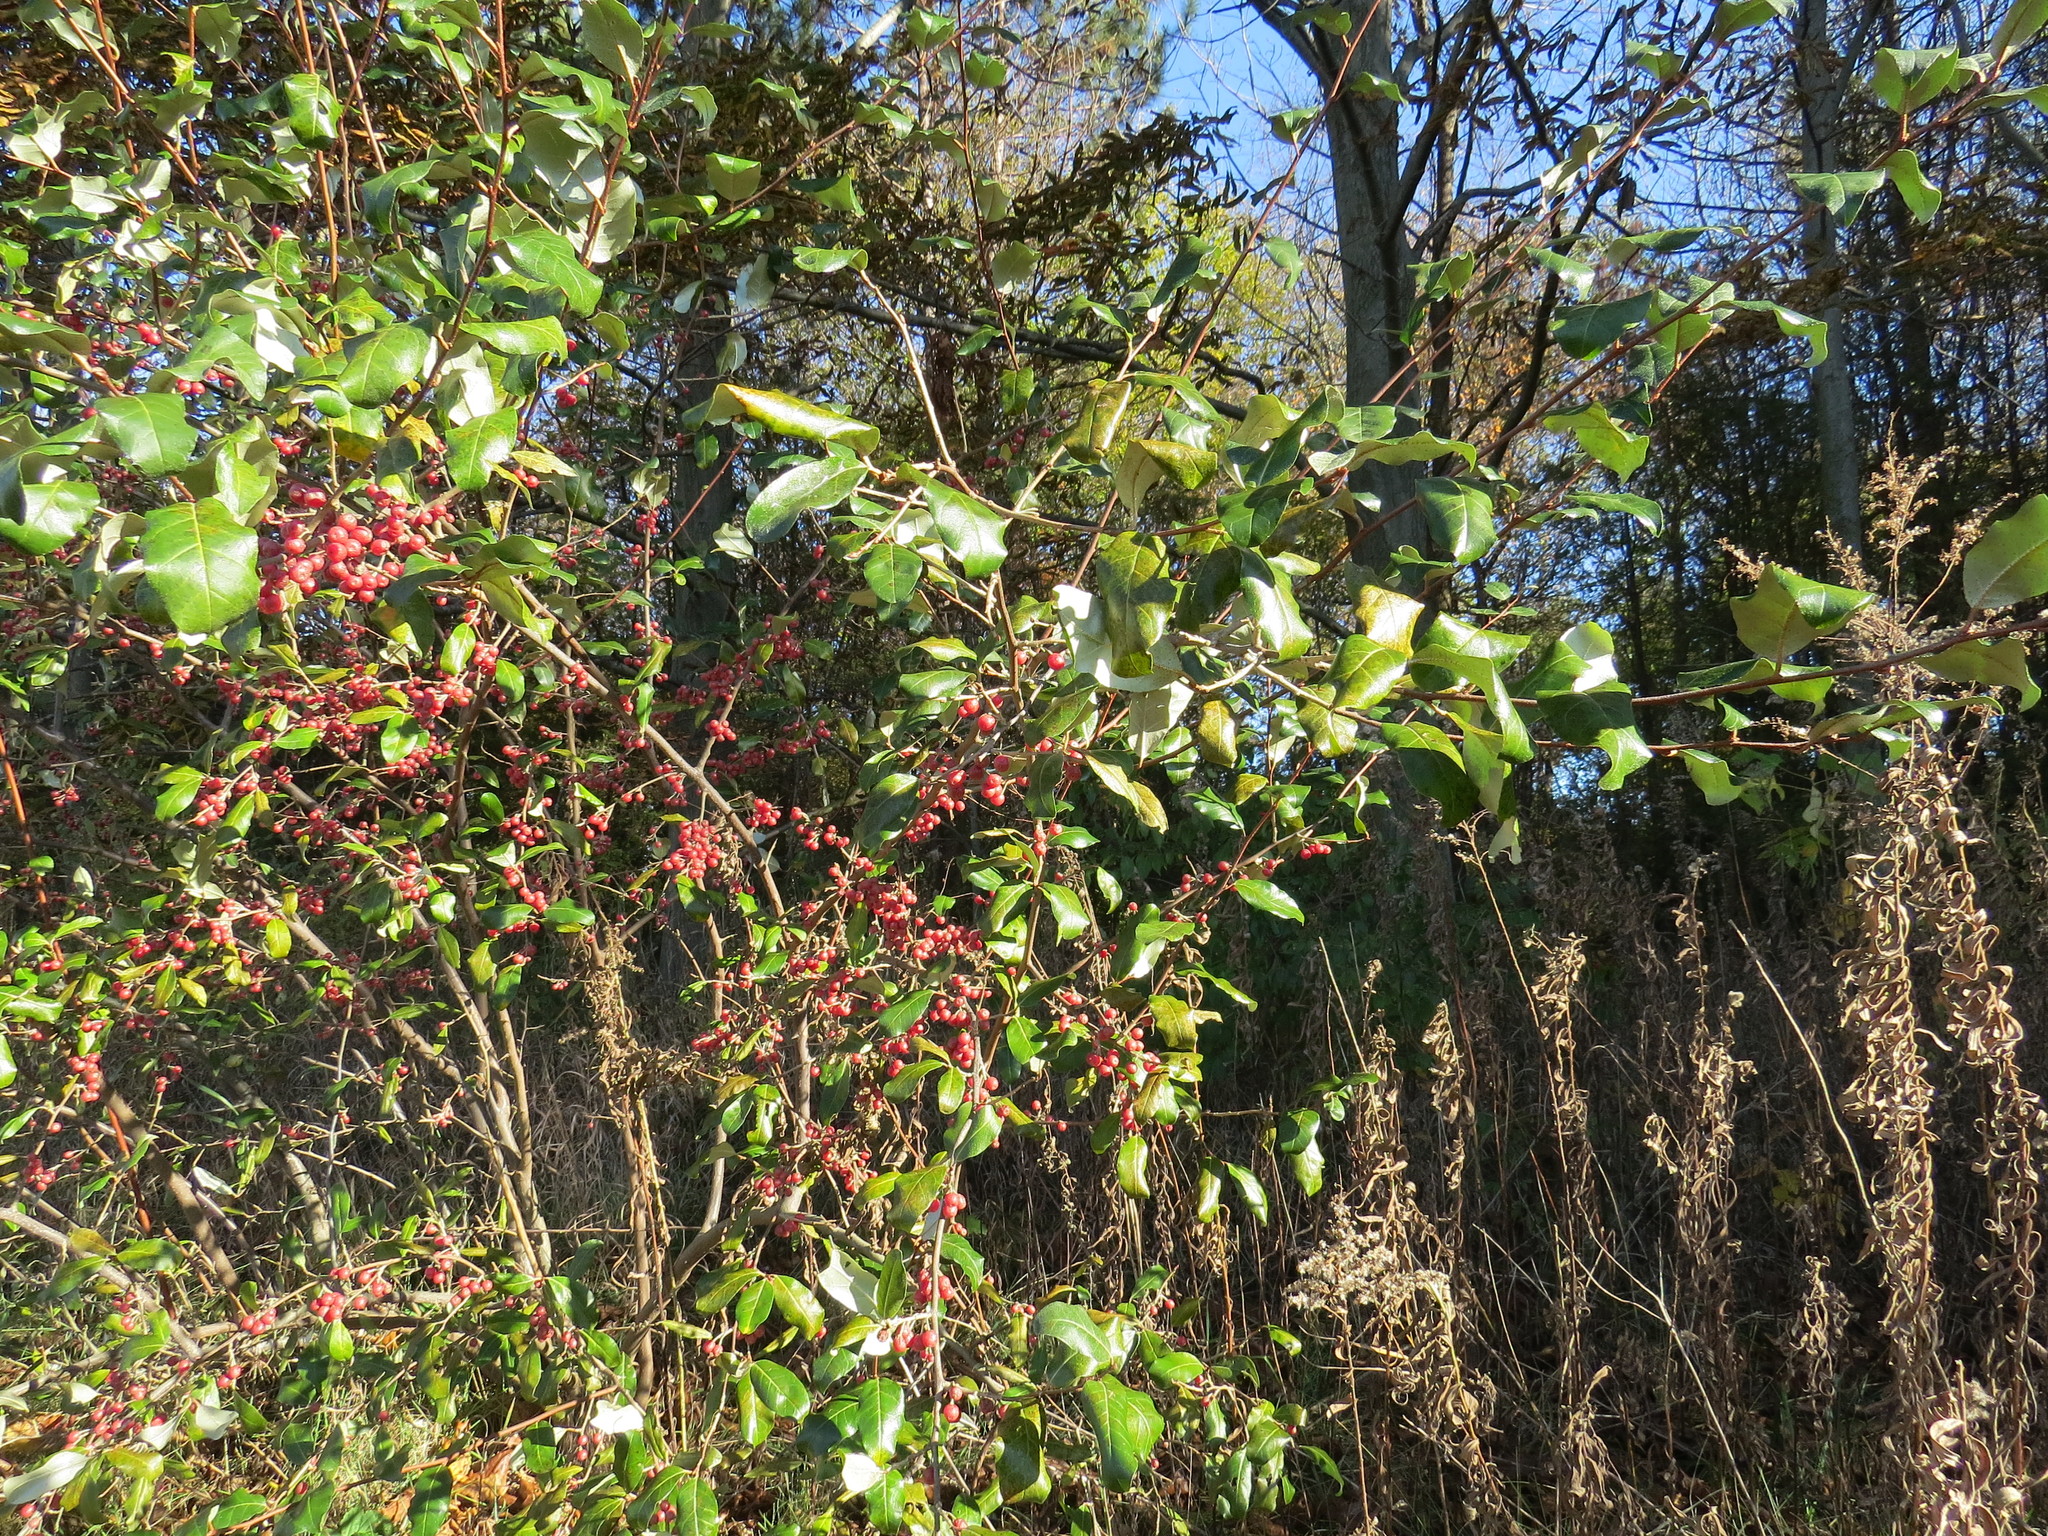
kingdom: Plantae
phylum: Tracheophyta
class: Magnoliopsida
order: Rosales
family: Elaeagnaceae
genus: Elaeagnus
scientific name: Elaeagnus umbellata
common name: Autumn olive
